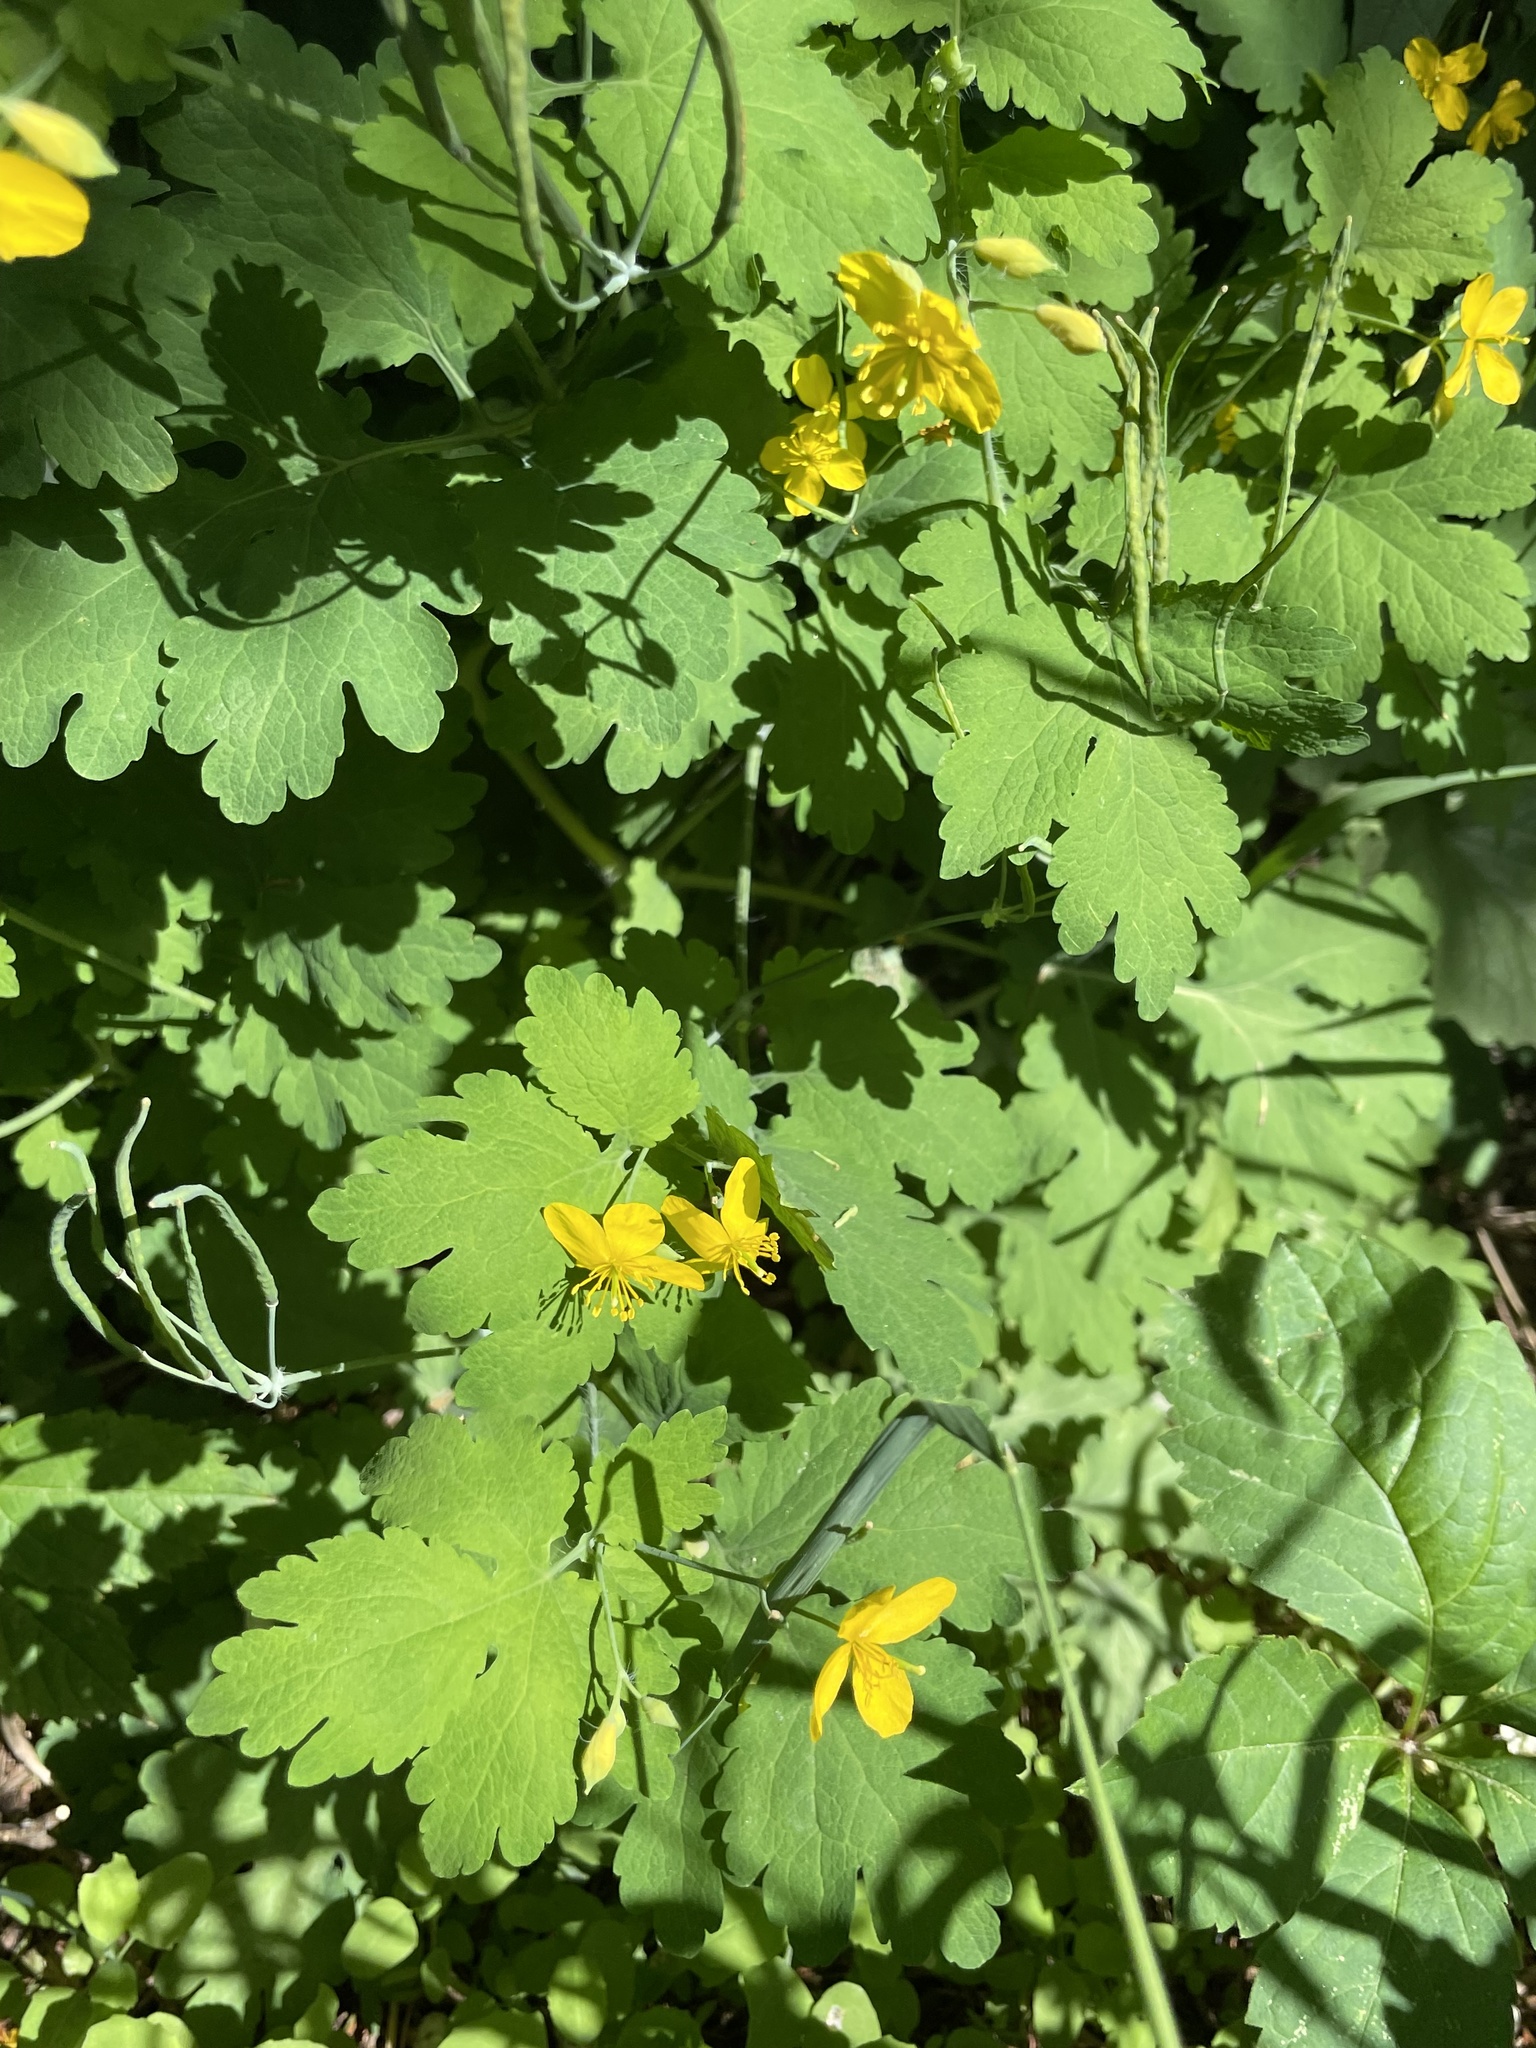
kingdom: Plantae
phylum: Tracheophyta
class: Magnoliopsida
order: Ranunculales
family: Papaveraceae
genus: Chelidonium
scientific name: Chelidonium majus
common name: Greater celandine
